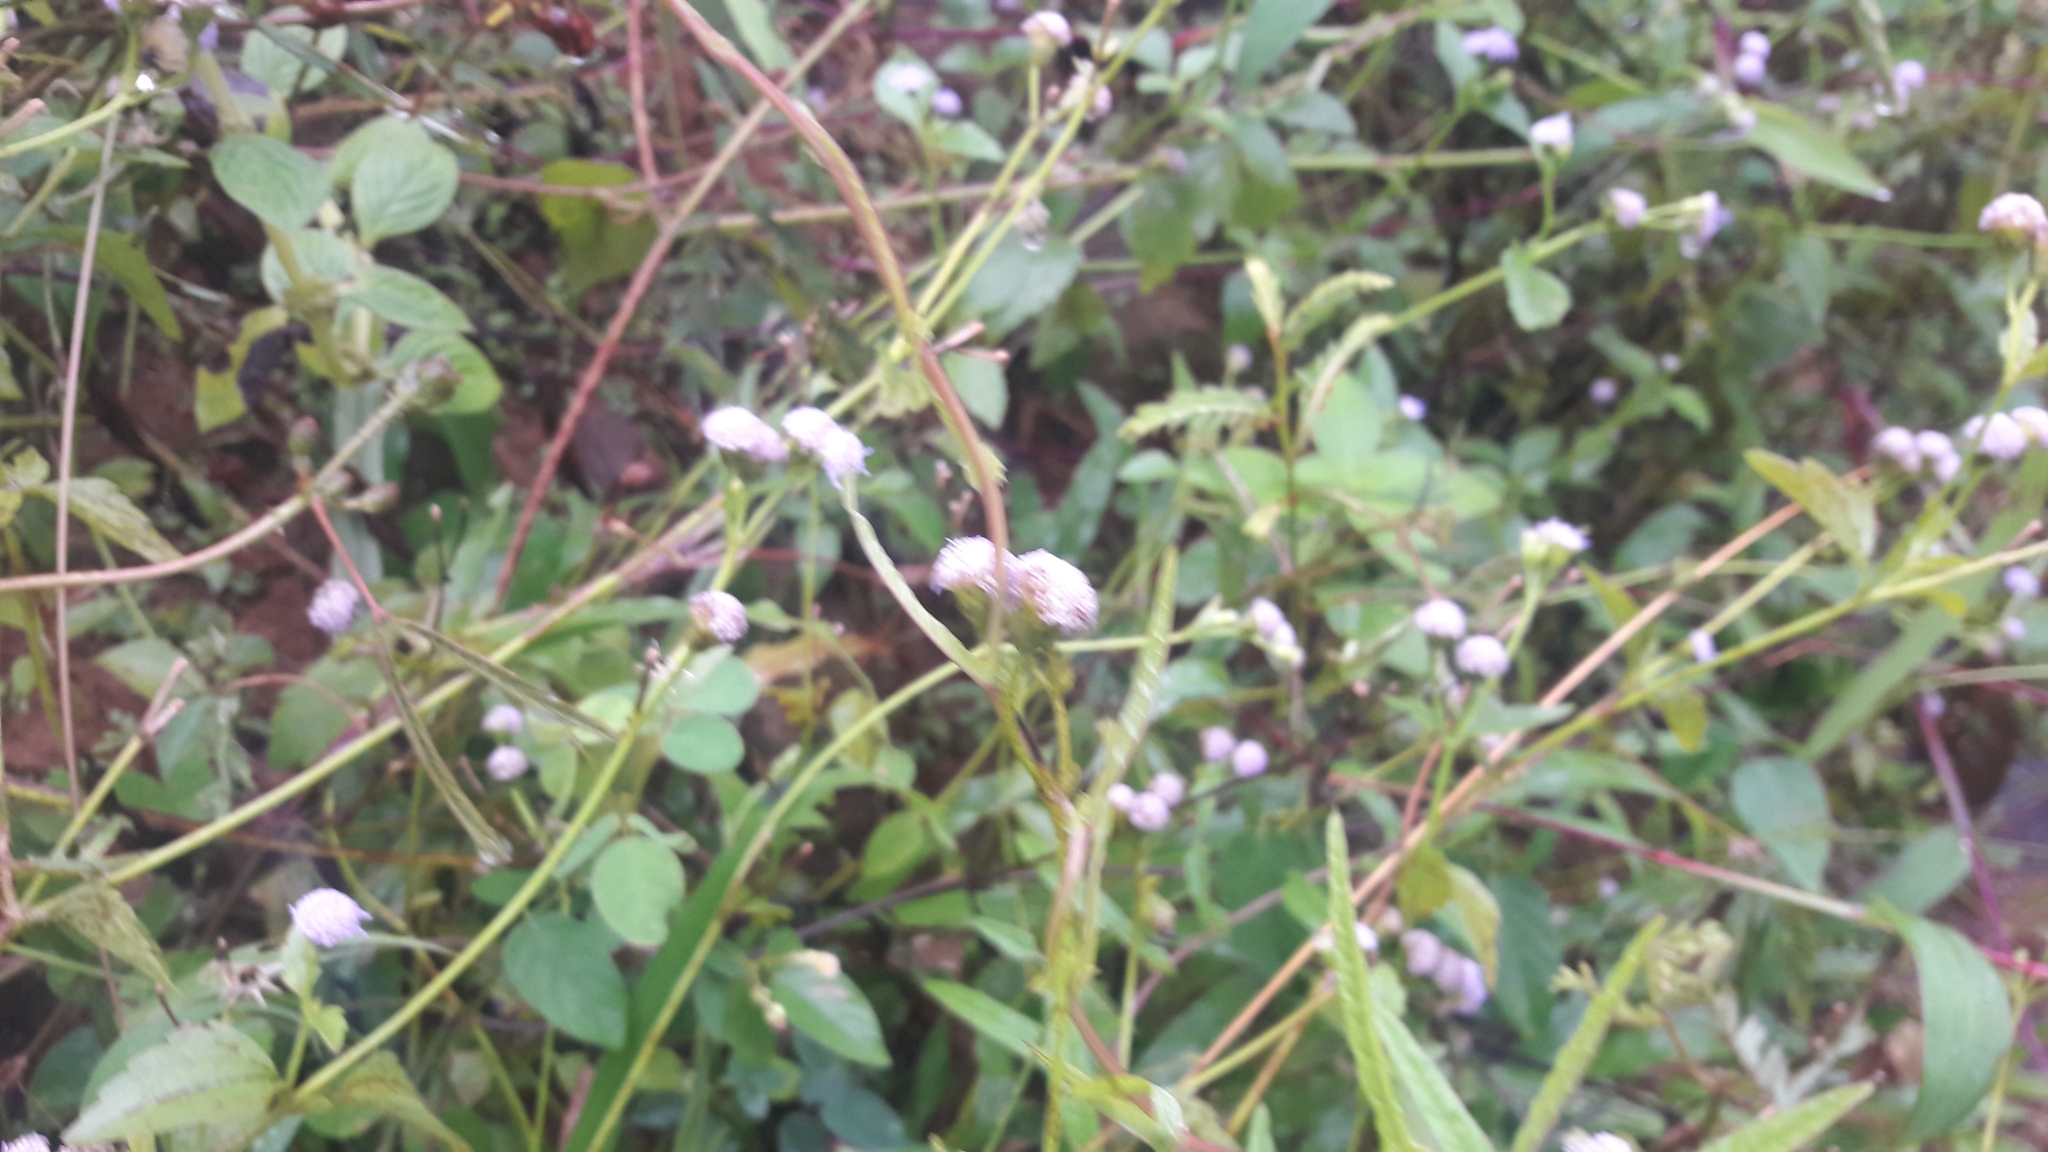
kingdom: Plantae
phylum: Tracheophyta
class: Magnoliopsida
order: Asterales
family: Asteraceae
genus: Praxelis
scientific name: Praxelis clematidea
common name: Praxelis
